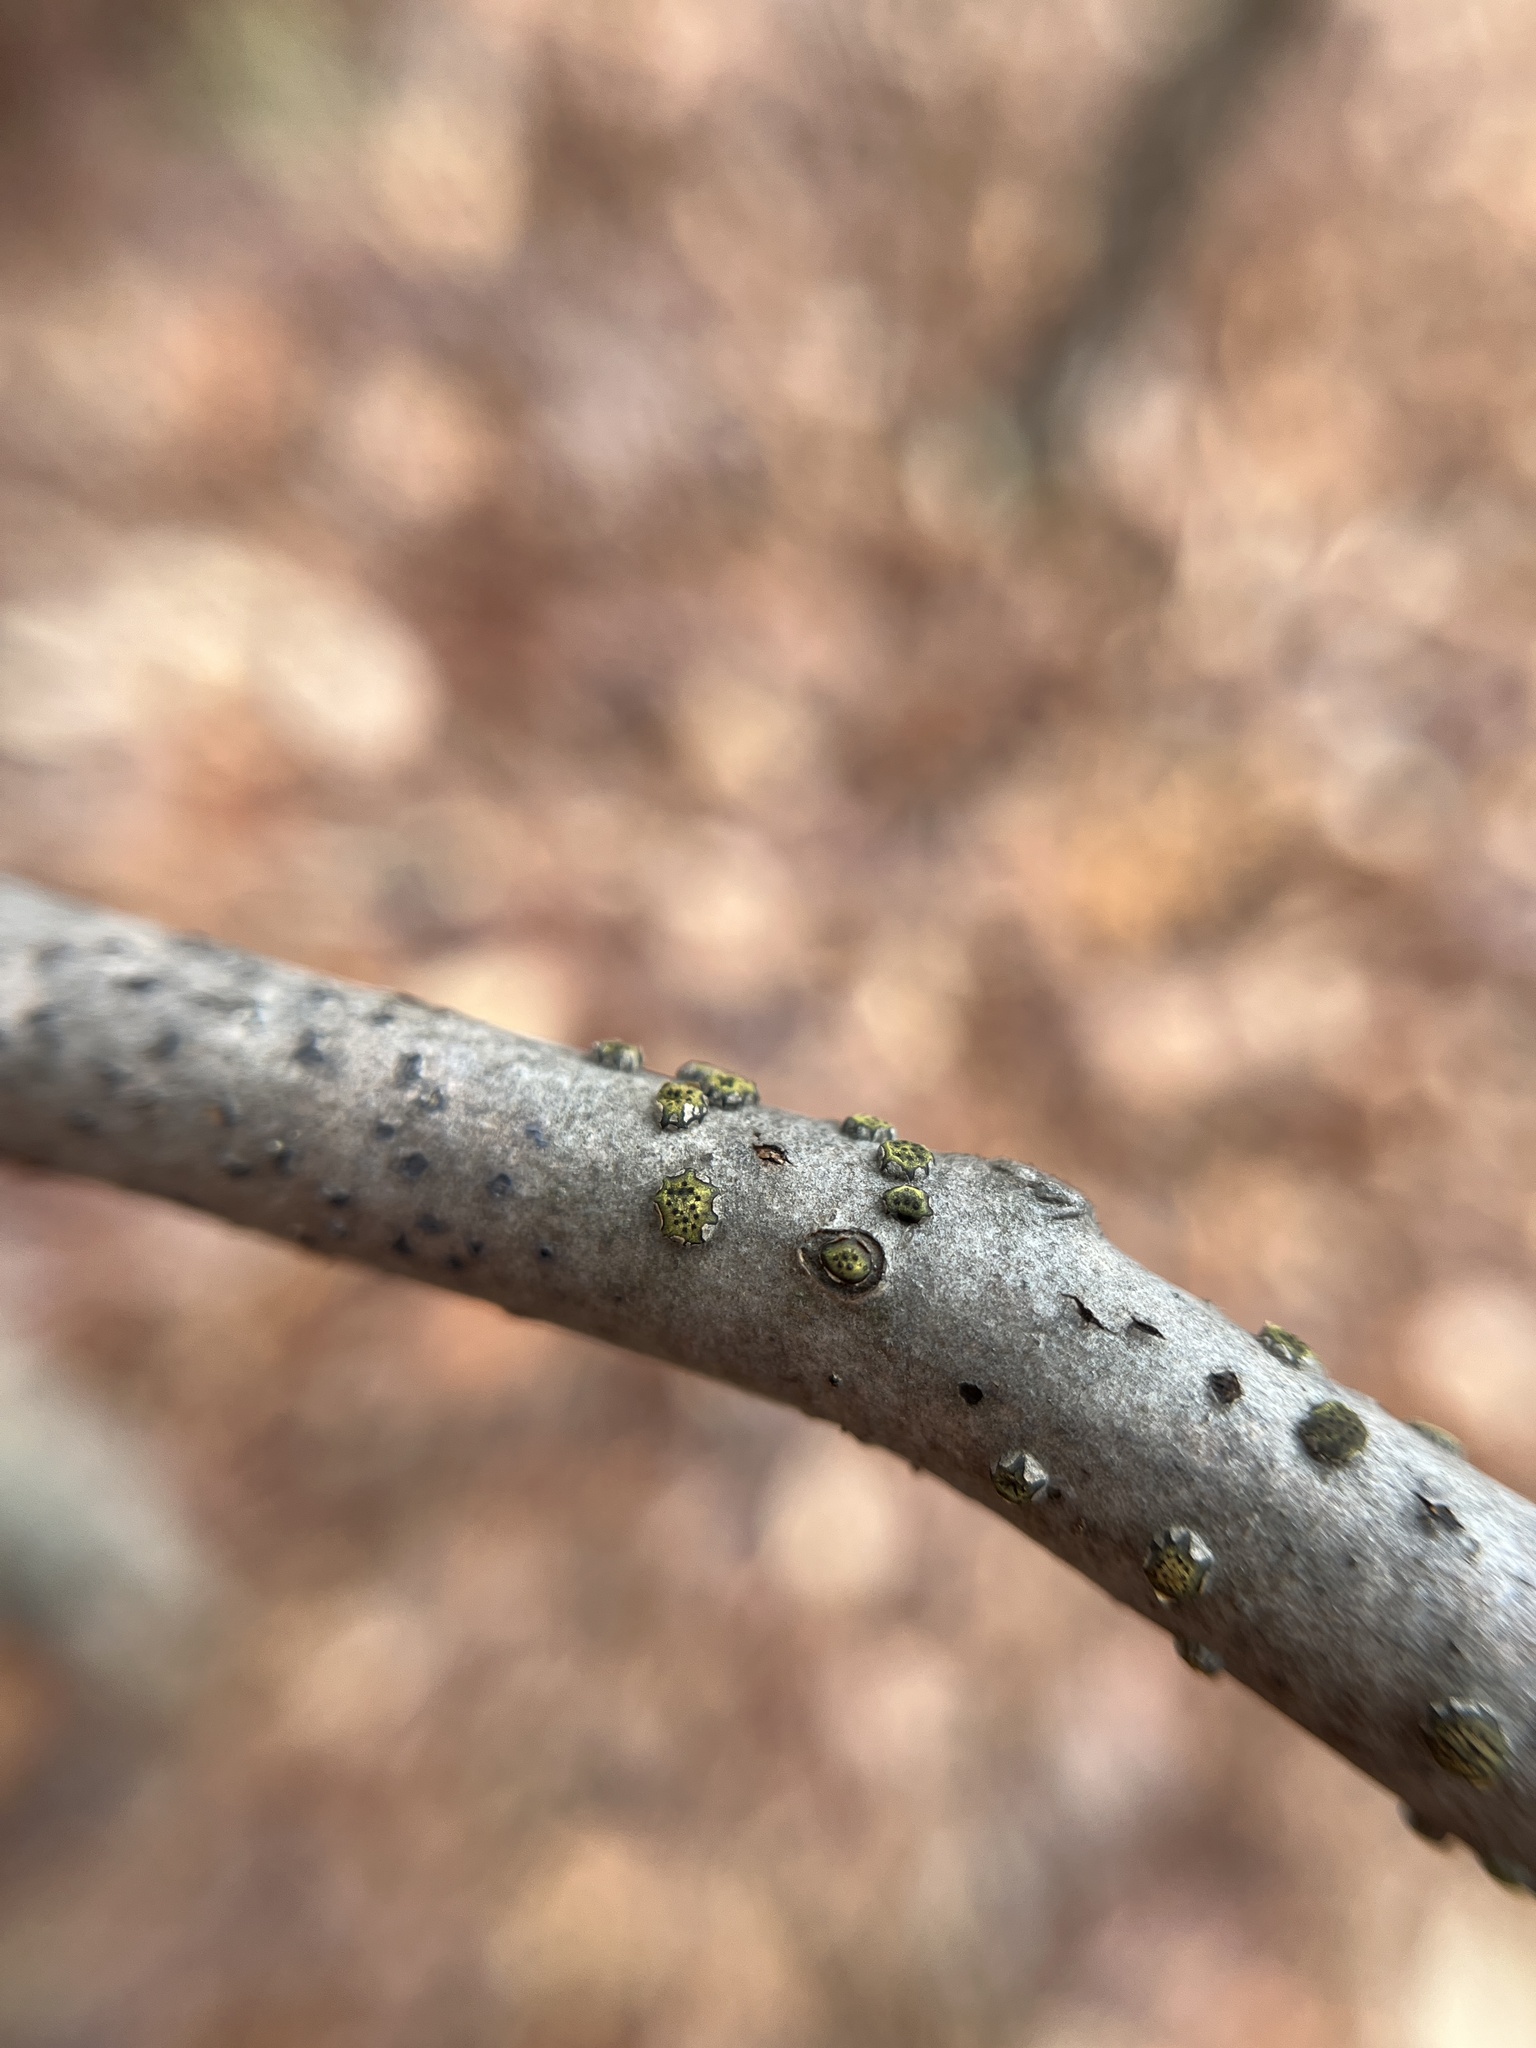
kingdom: Fungi
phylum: Ascomycota
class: Sordariomycetes
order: Xylariales
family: Diatrypaceae
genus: Diatrype
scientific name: Diatrype virescens
